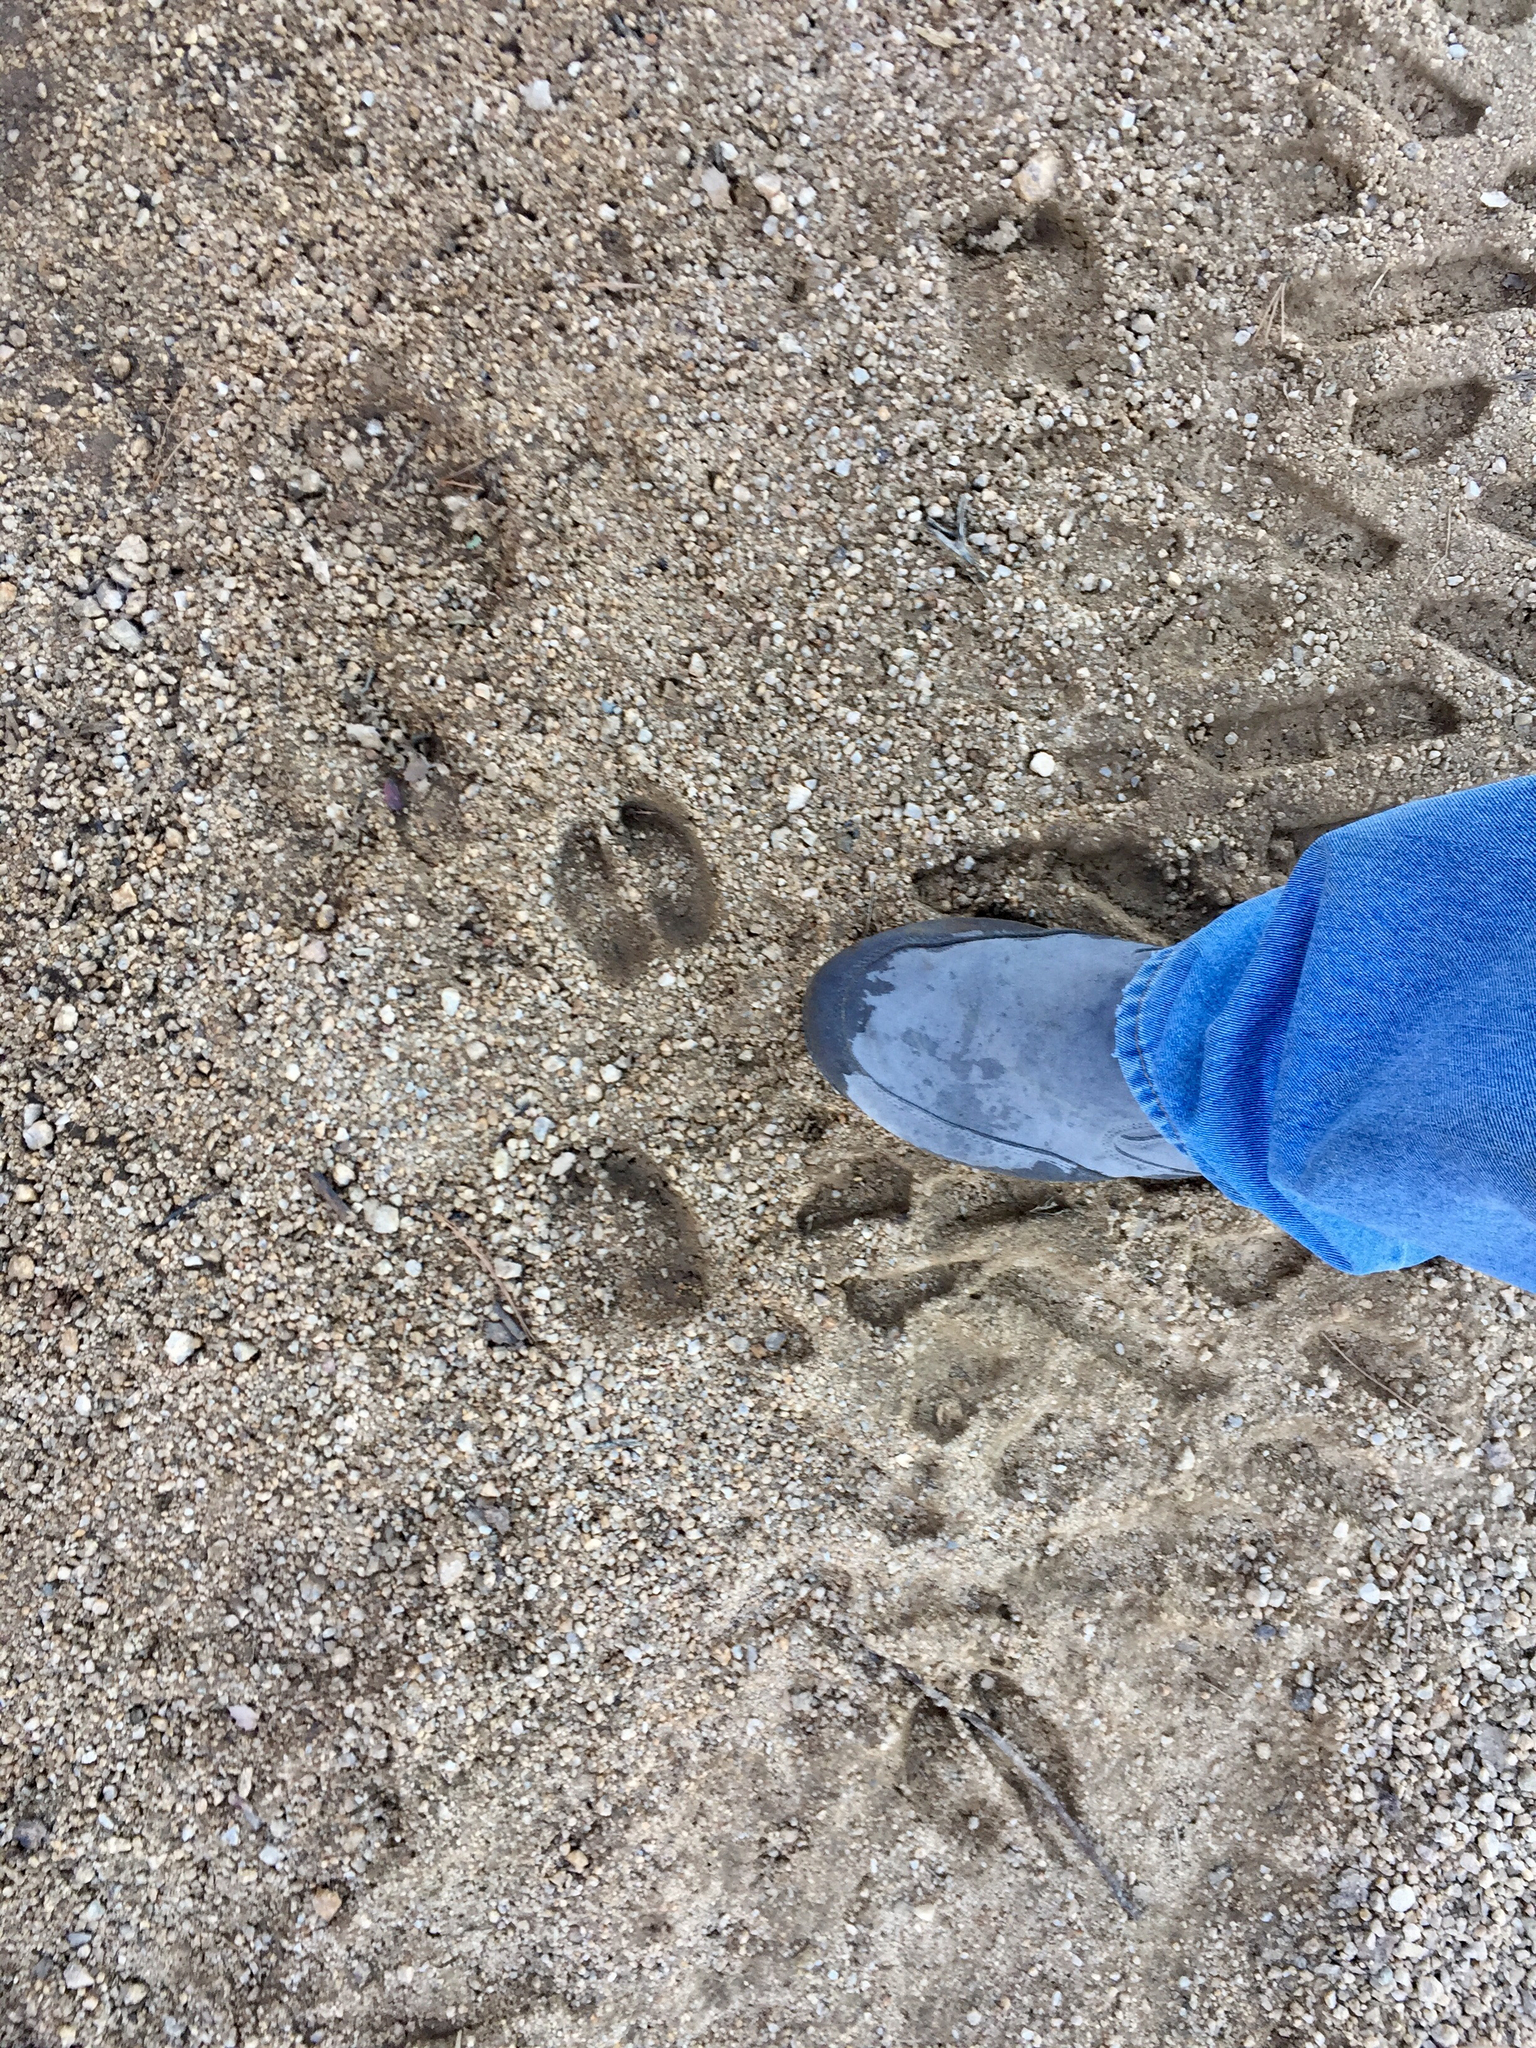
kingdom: Animalia
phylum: Chordata
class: Mammalia
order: Artiodactyla
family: Cervidae
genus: Cervus
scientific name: Cervus elaphus
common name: Red deer
